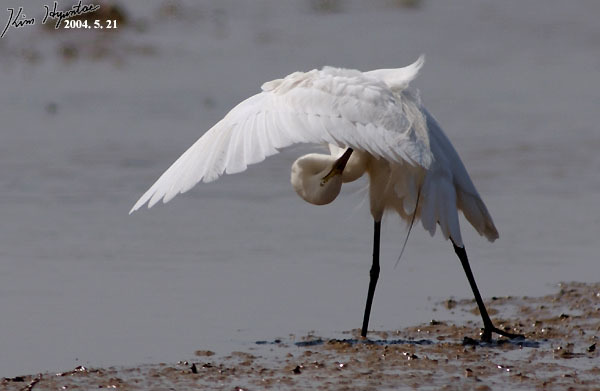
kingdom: Animalia
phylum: Chordata
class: Aves
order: Pelecaniformes
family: Ardeidae
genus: Egretta
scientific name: Egretta intermedia
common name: Intermediate egret
